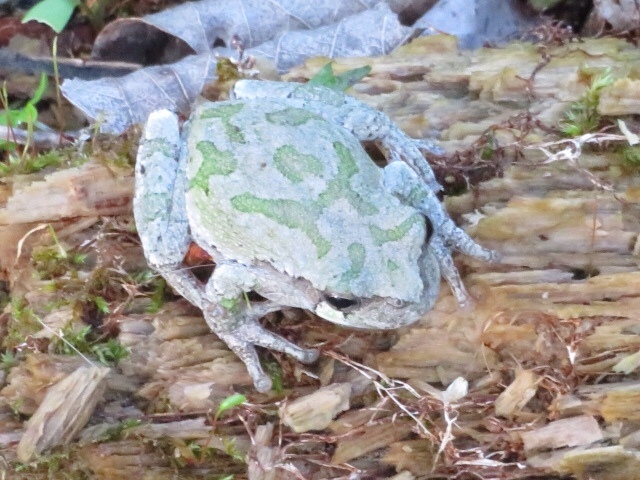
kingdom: Animalia
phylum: Chordata
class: Amphibia
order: Anura
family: Hylidae
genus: Hyla
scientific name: Hyla
